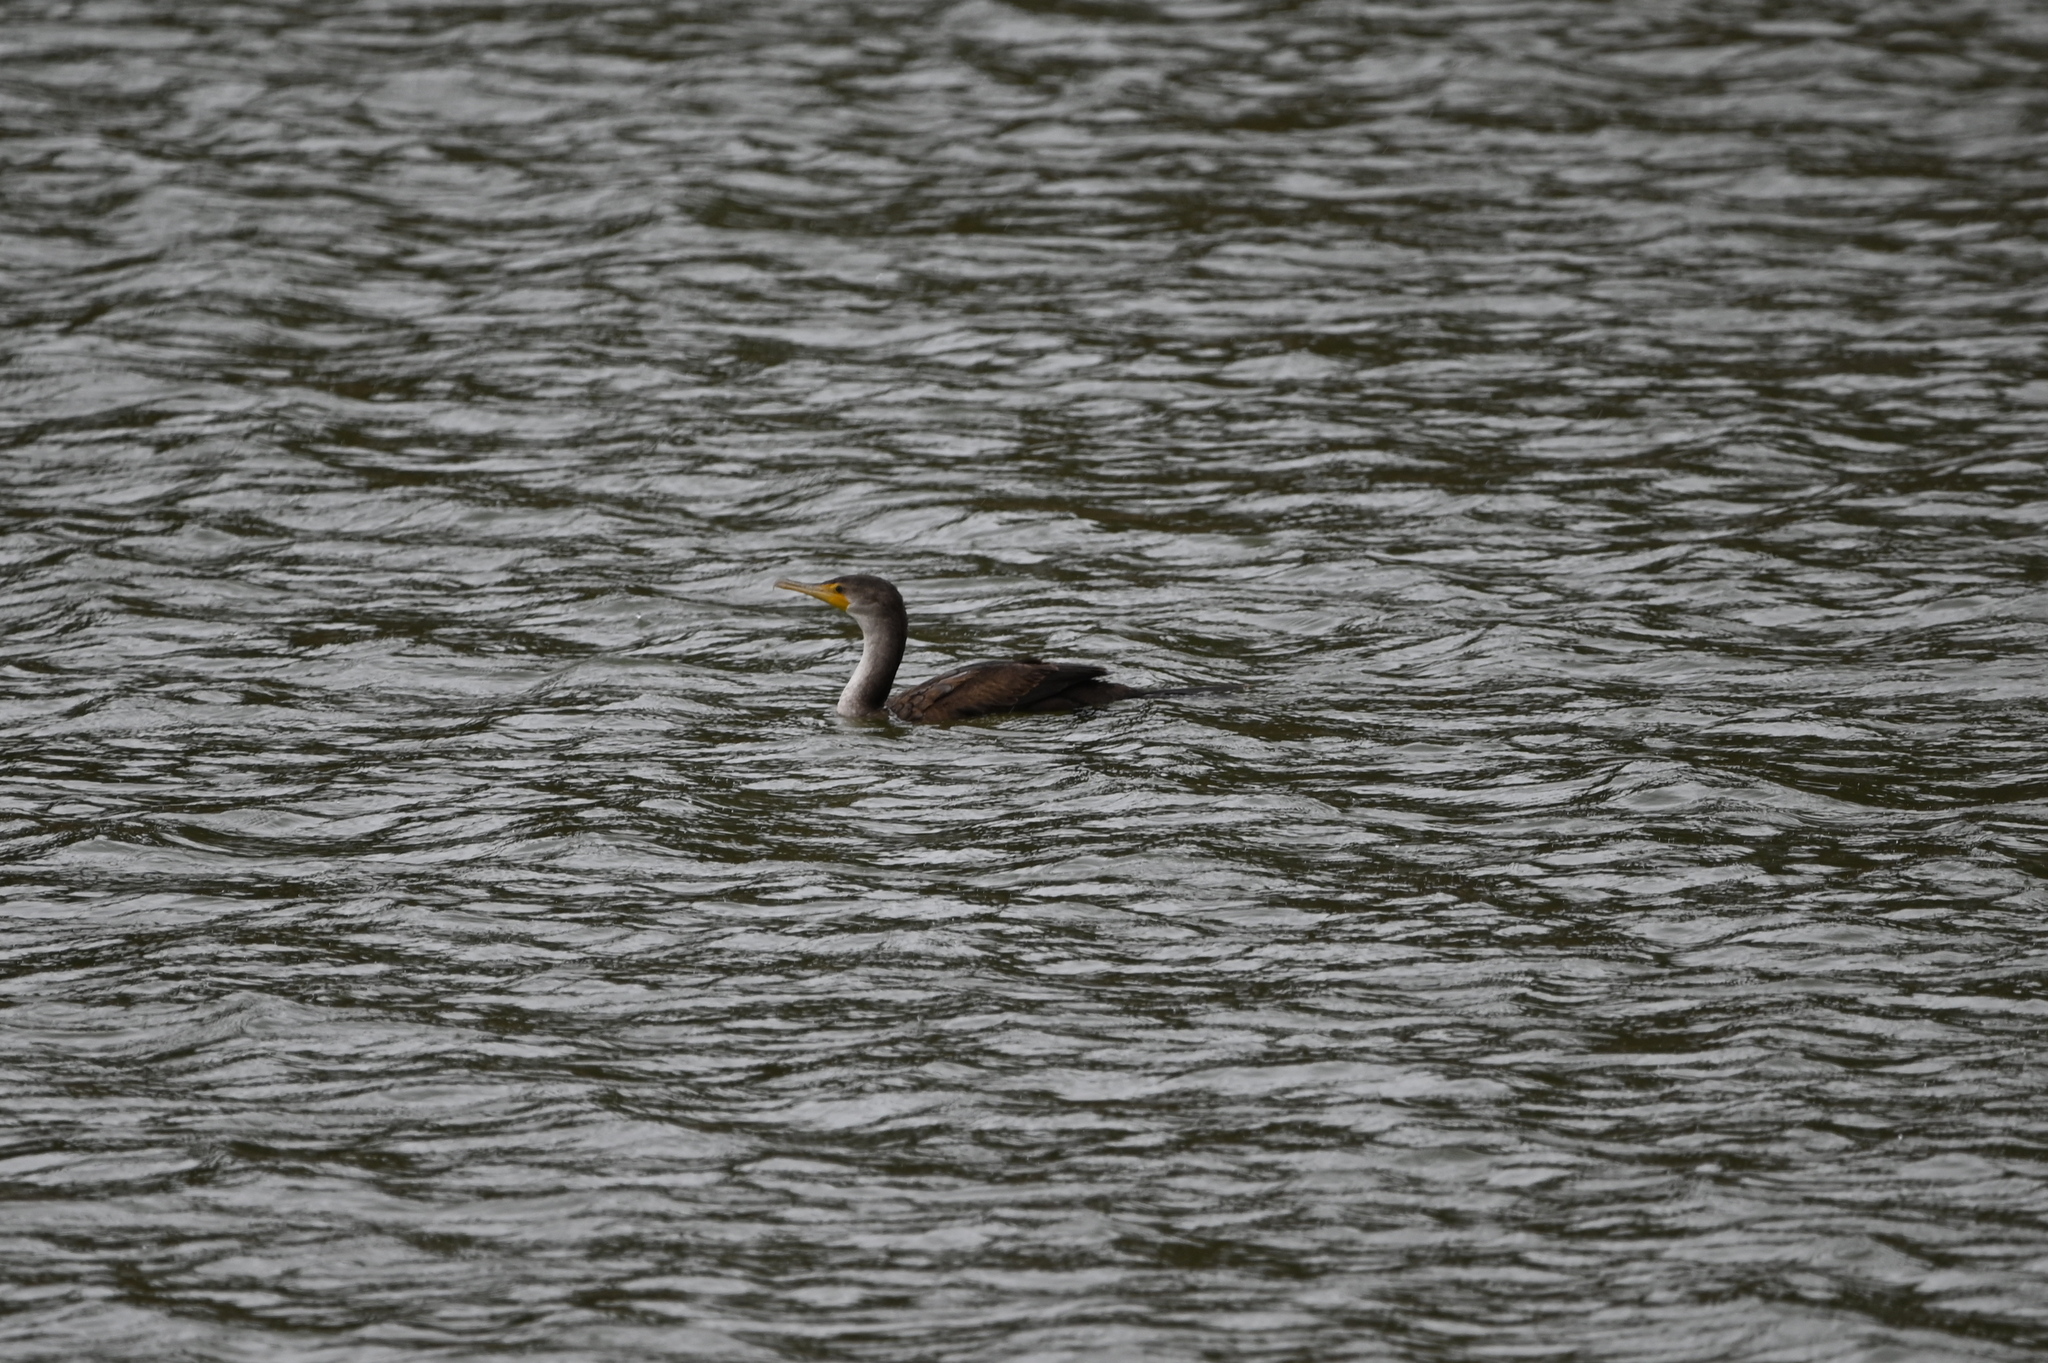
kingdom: Animalia
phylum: Chordata
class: Aves
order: Suliformes
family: Phalacrocoracidae
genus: Phalacrocorax
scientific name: Phalacrocorax auritus
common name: Double-crested cormorant
